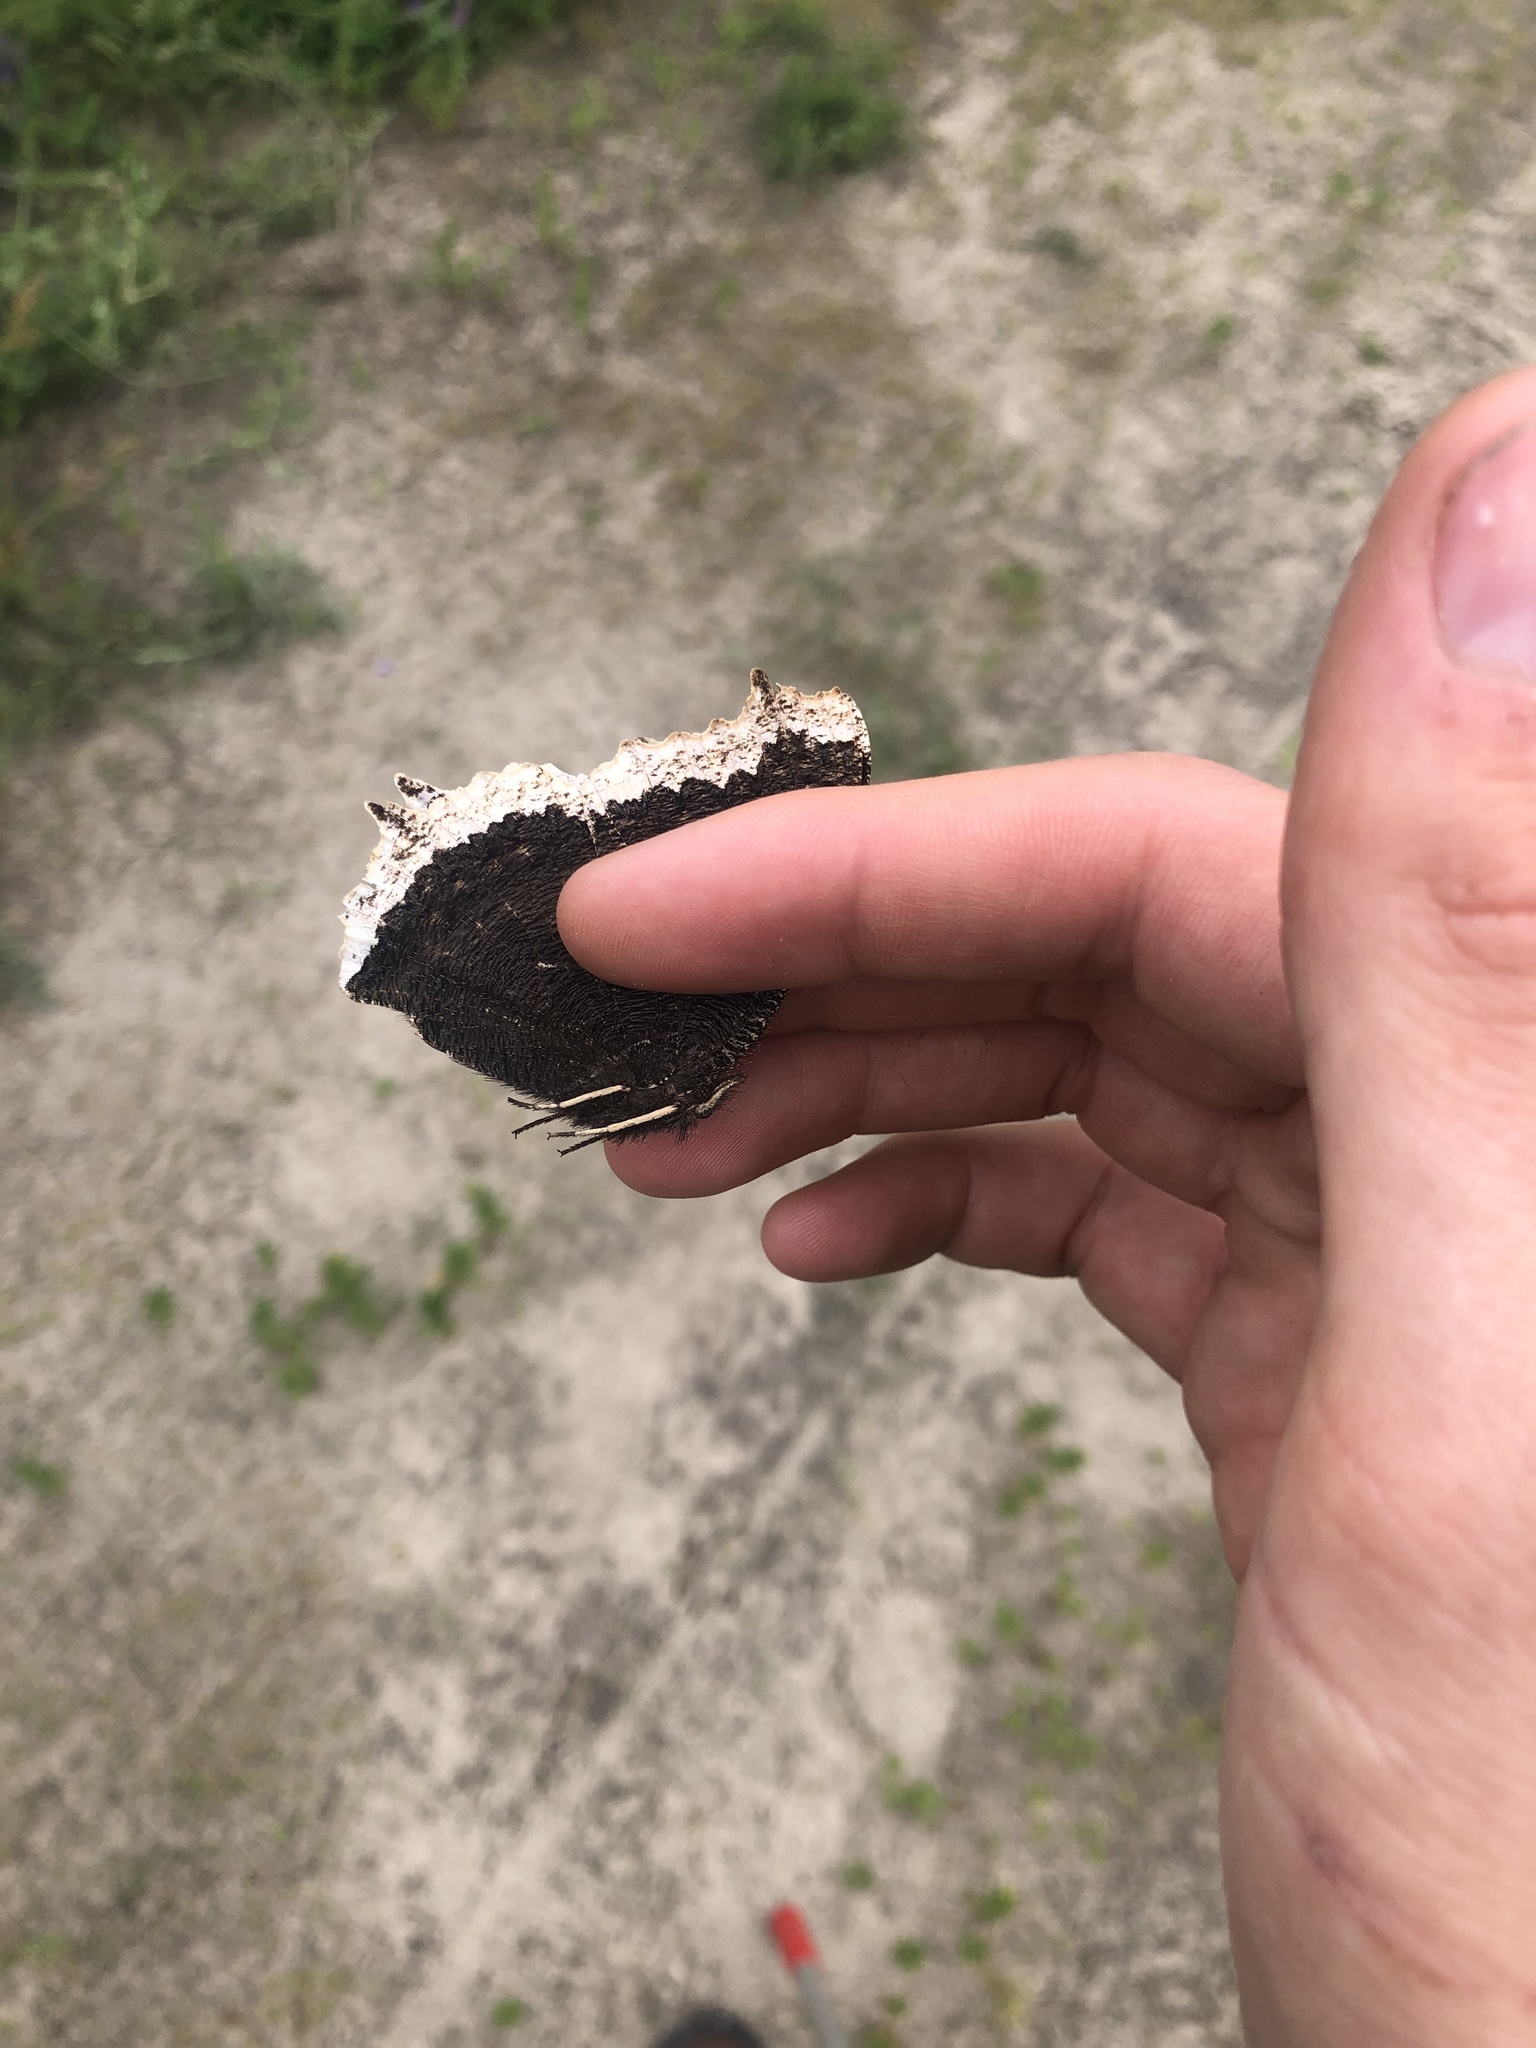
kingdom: Animalia
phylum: Arthropoda
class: Insecta
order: Lepidoptera
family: Nymphalidae
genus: Nymphalis
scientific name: Nymphalis antiopa
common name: Camberwell beauty
